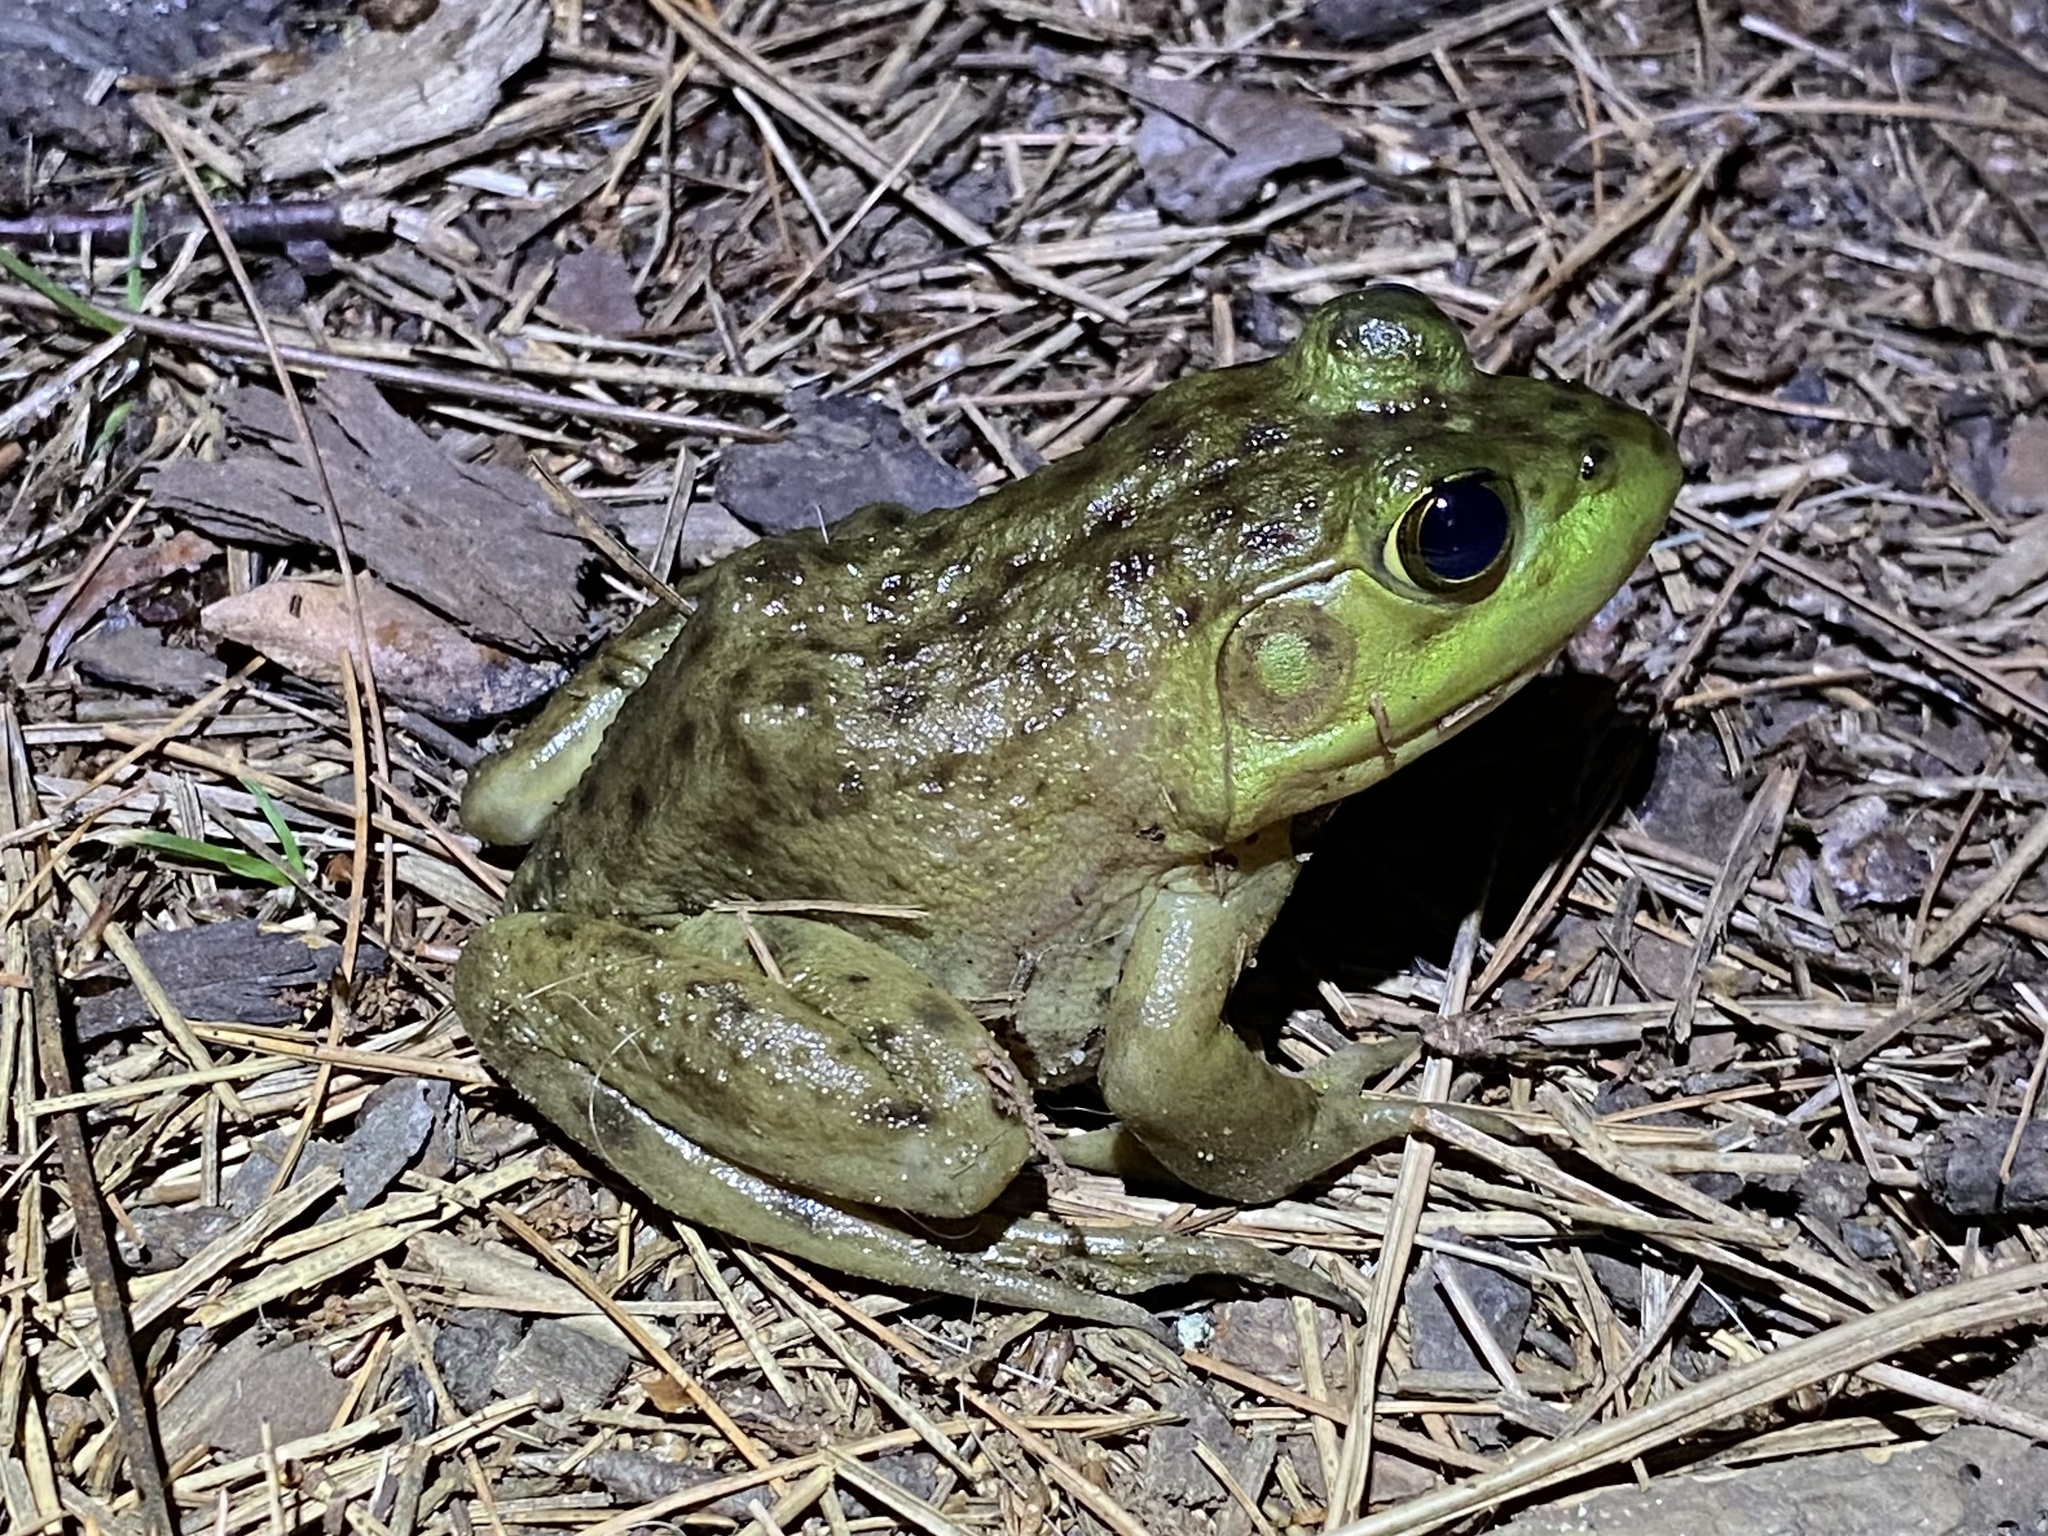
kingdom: Animalia
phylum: Chordata
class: Amphibia
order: Anura
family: Ranidae
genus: Lithobates
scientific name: Lithobates catesbeianus
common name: American bullfrog
